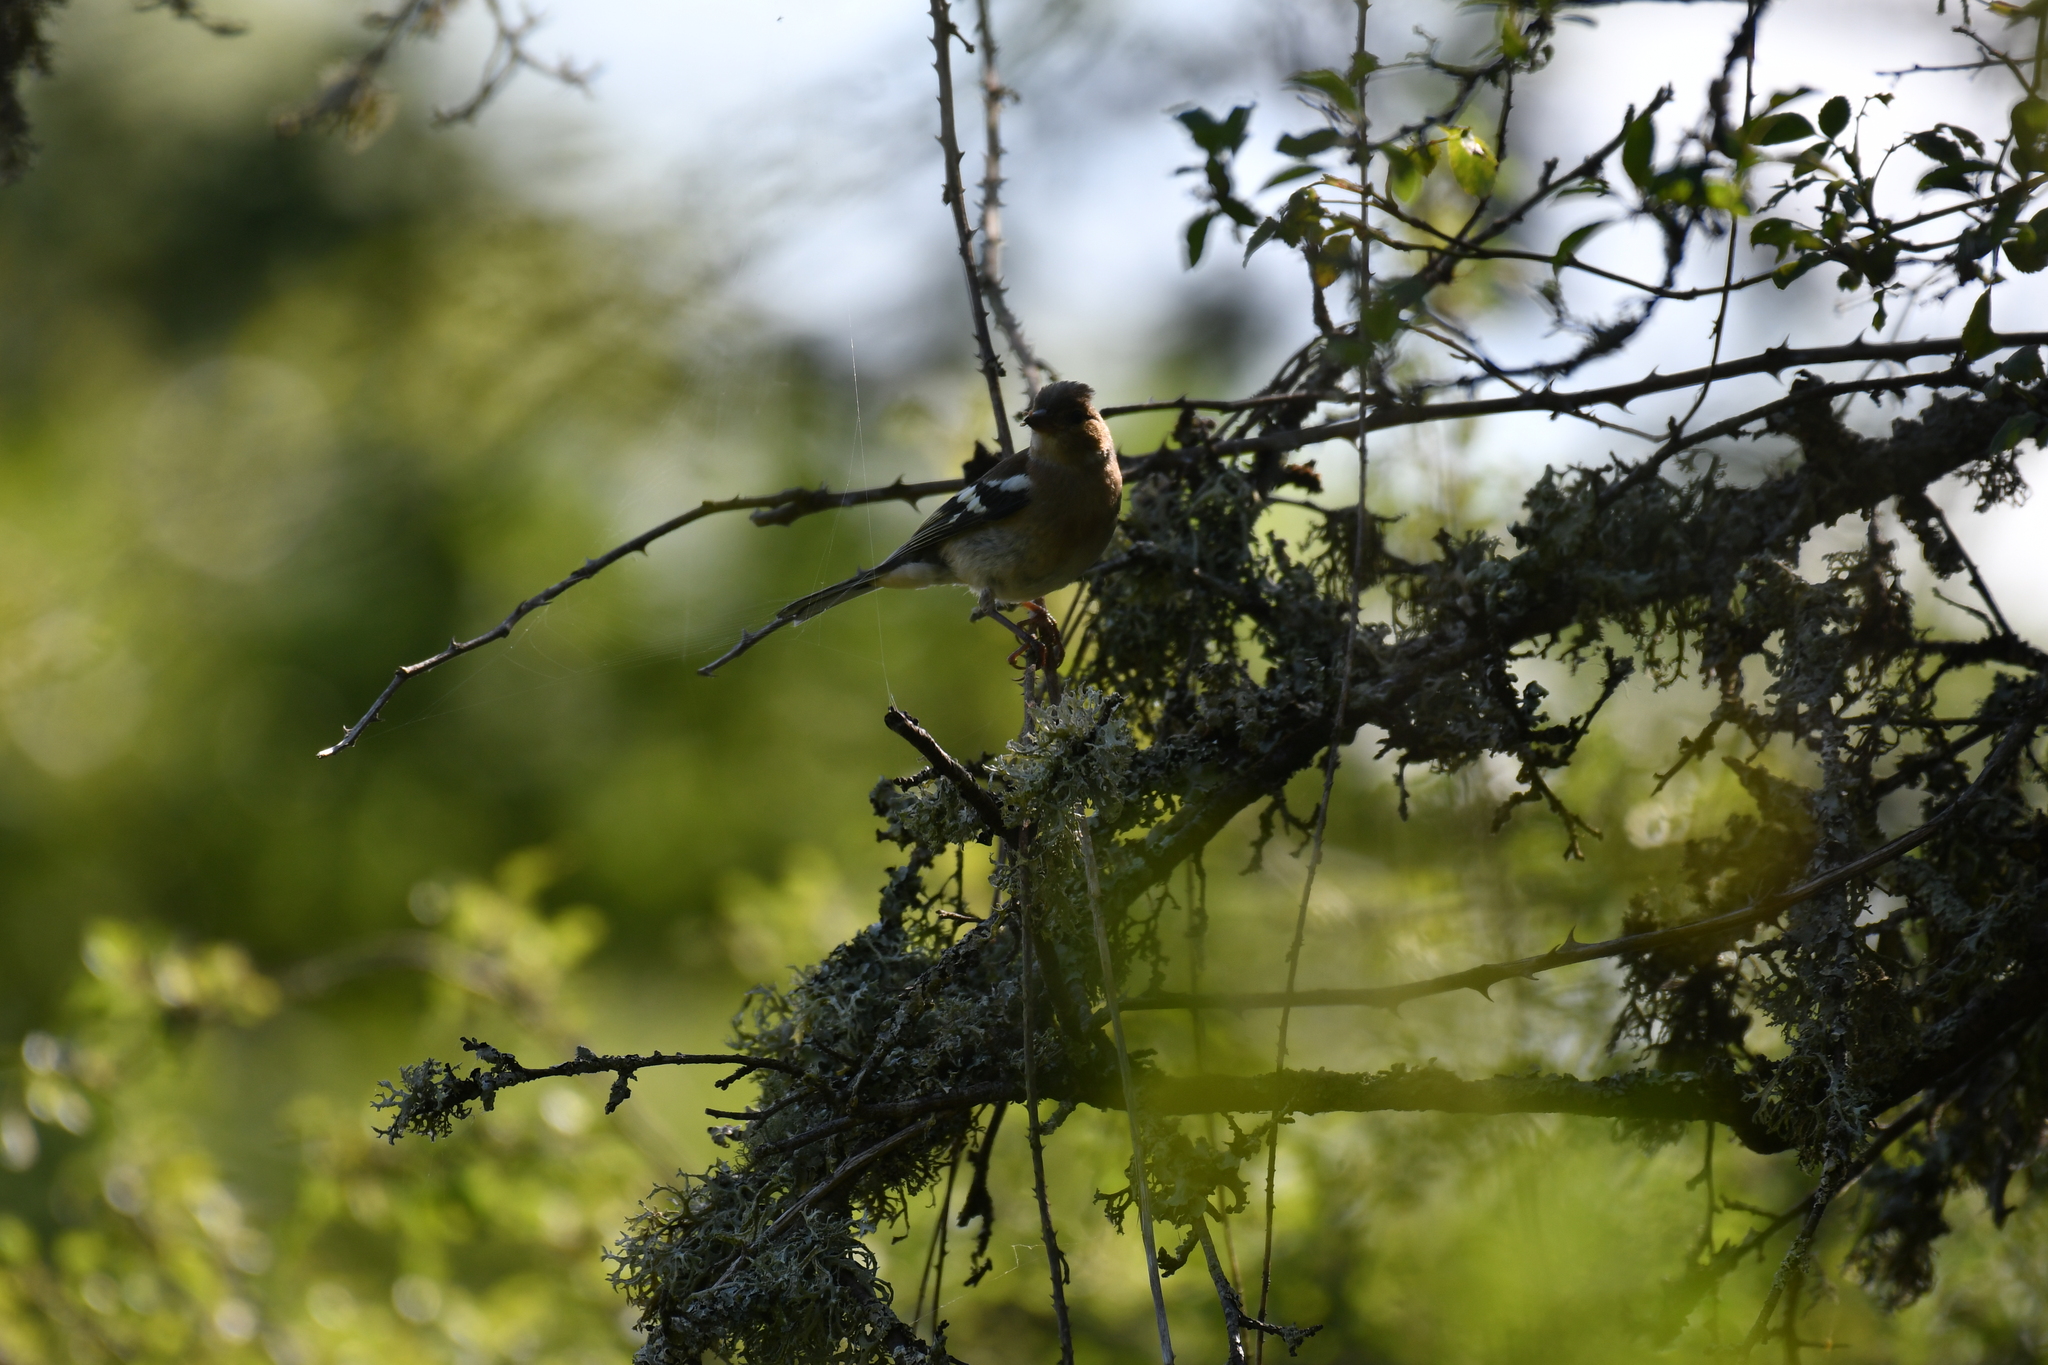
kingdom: Animalia
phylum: Chordata
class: Aves
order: Passeriformes
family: Fringillidae
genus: Fringilla
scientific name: Fringilla coelebs
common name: Common chaffinch
